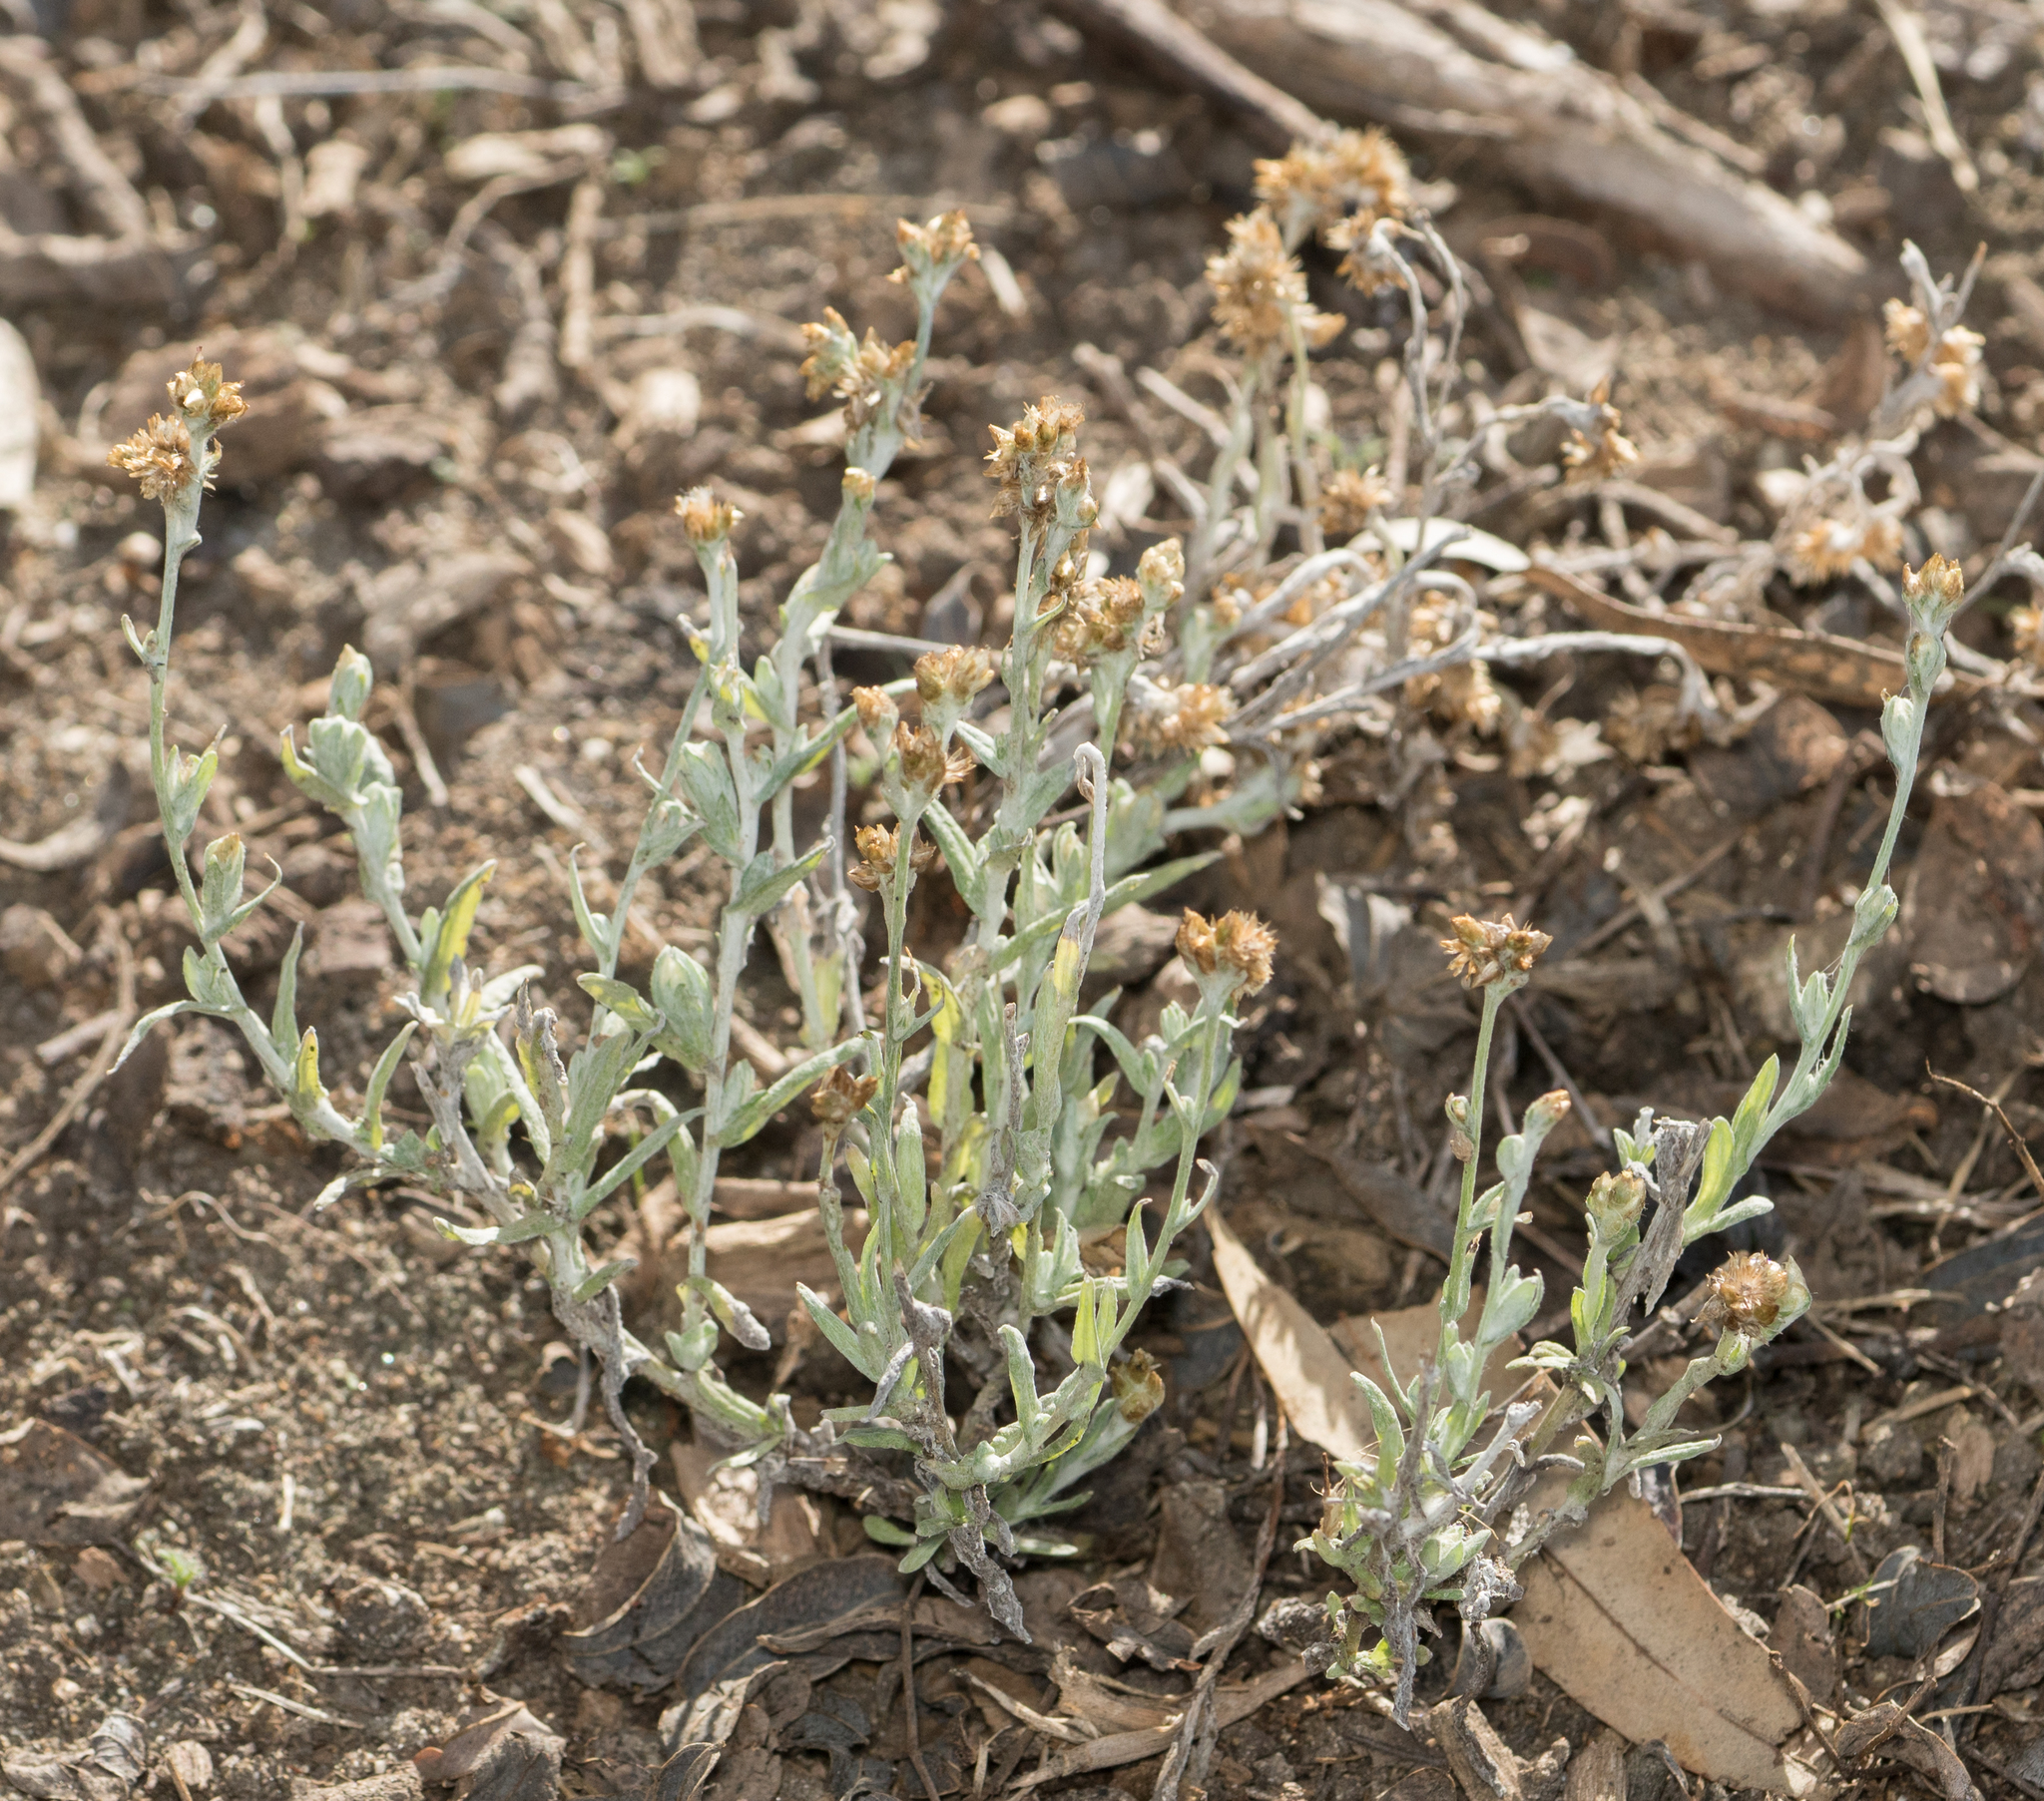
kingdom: Plantae
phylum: Tracheophyta
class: Magnoliopsida
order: Asterales
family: Asteraceae
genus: Helichrysum
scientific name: Helichrysum luteoalbum
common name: Daisy
